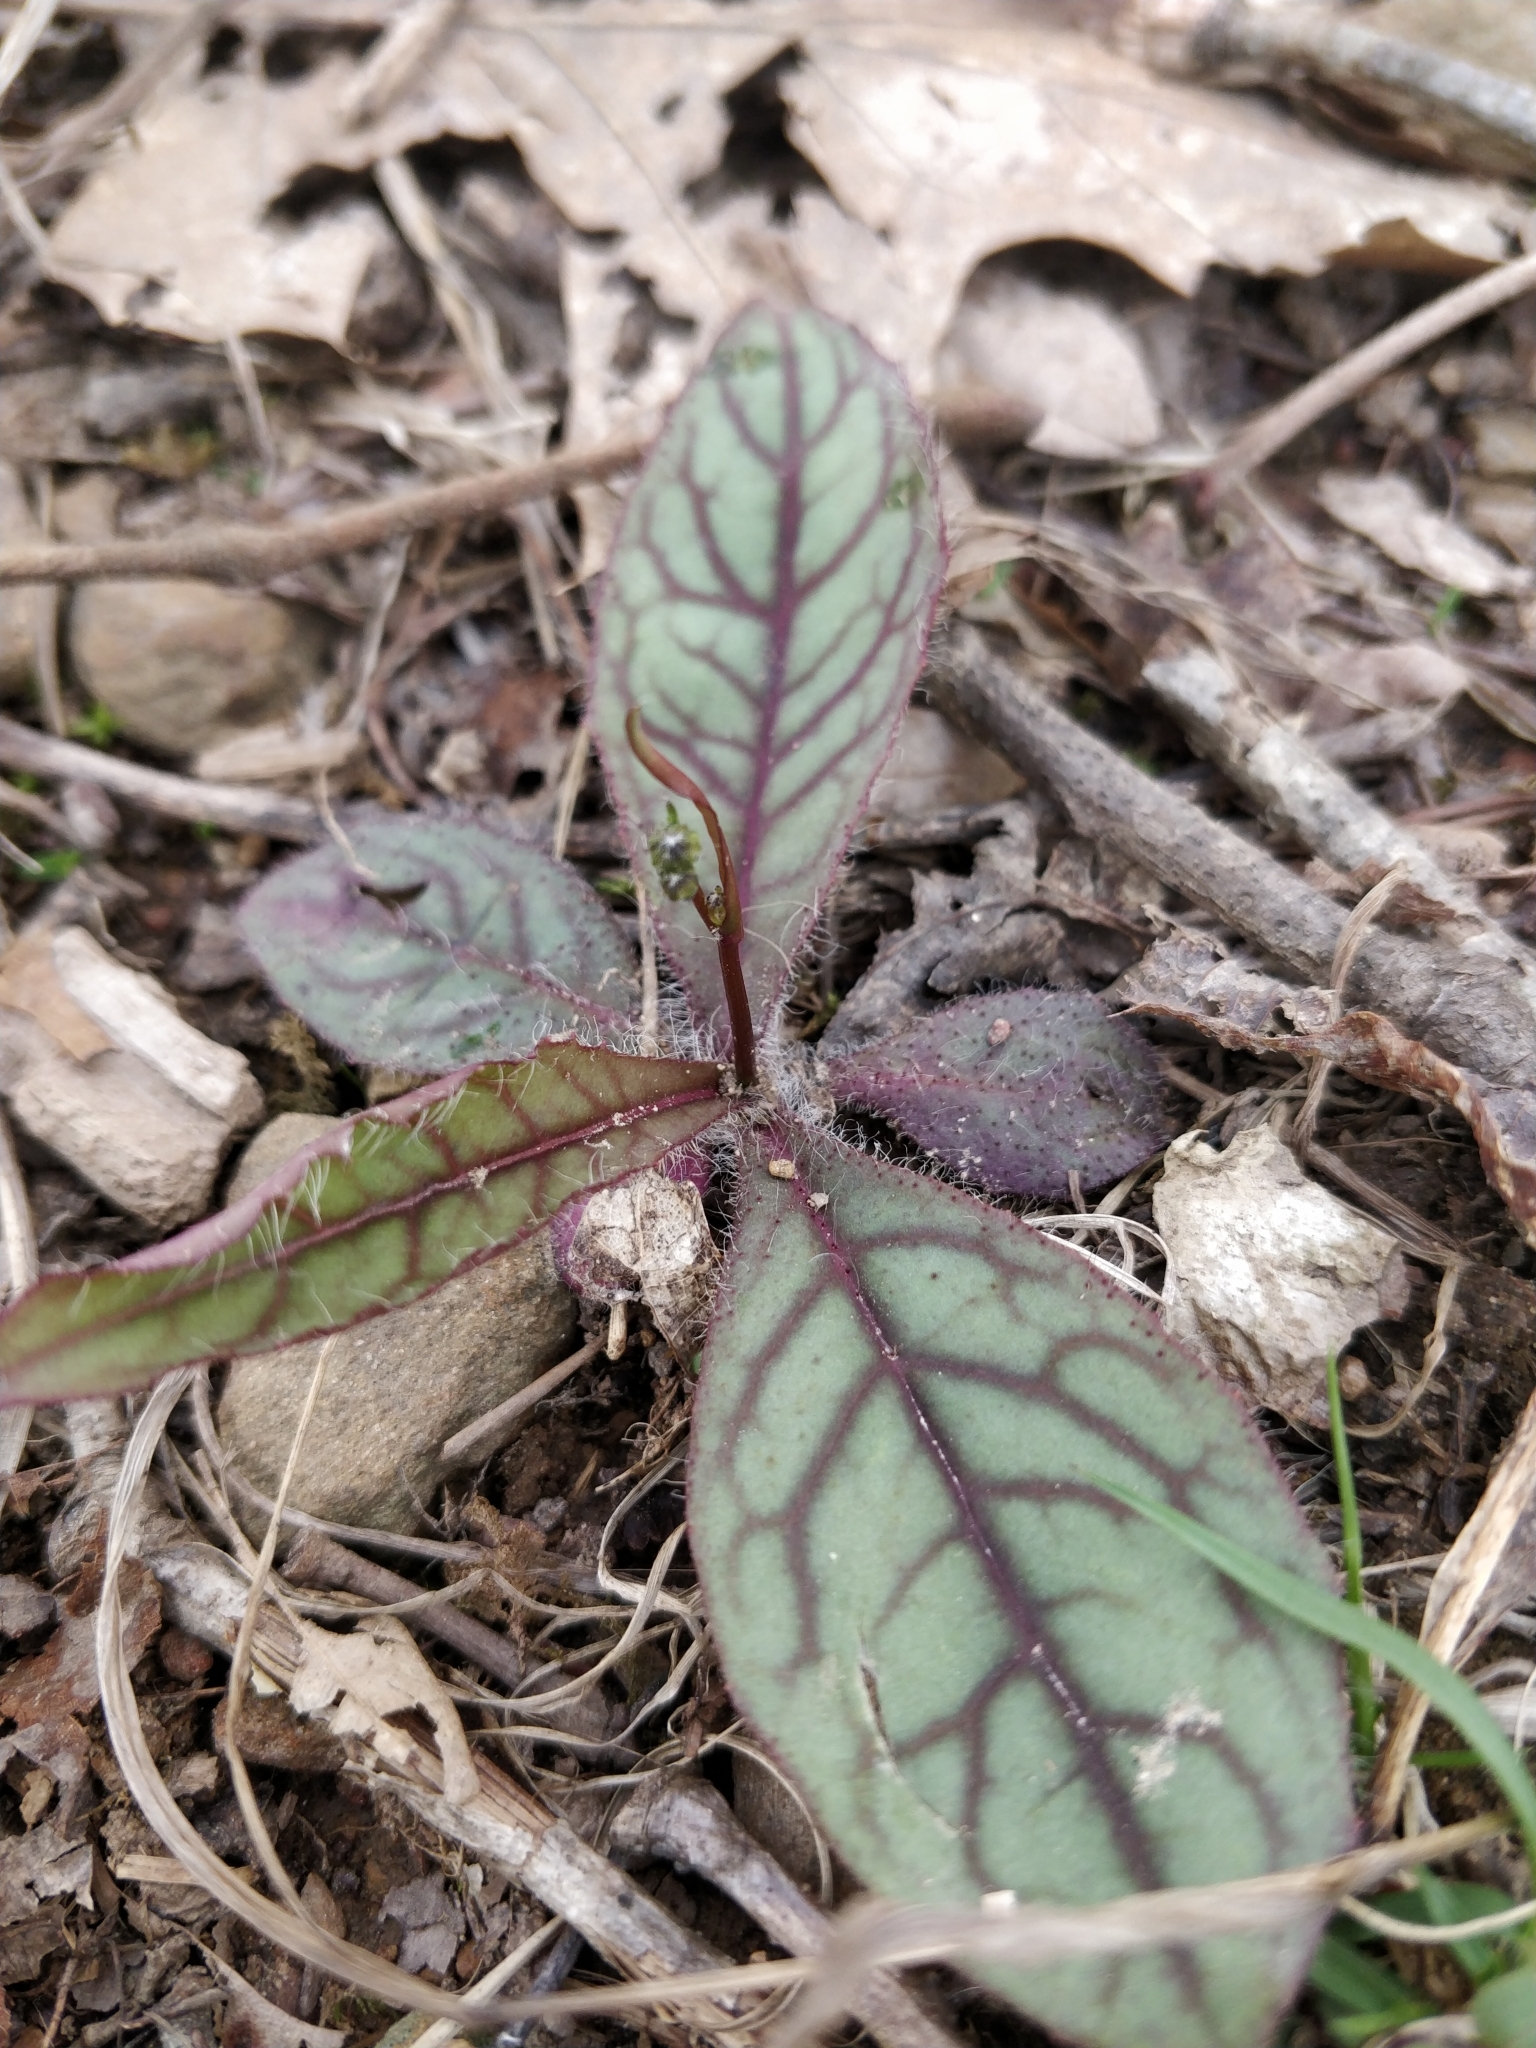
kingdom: Plantae
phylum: Tracheophyta
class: Magnoliopsida
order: Asterales
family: Asteraceae
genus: Hieracium
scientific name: Hieracium venosum
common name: Rattlesnake hawkweed
